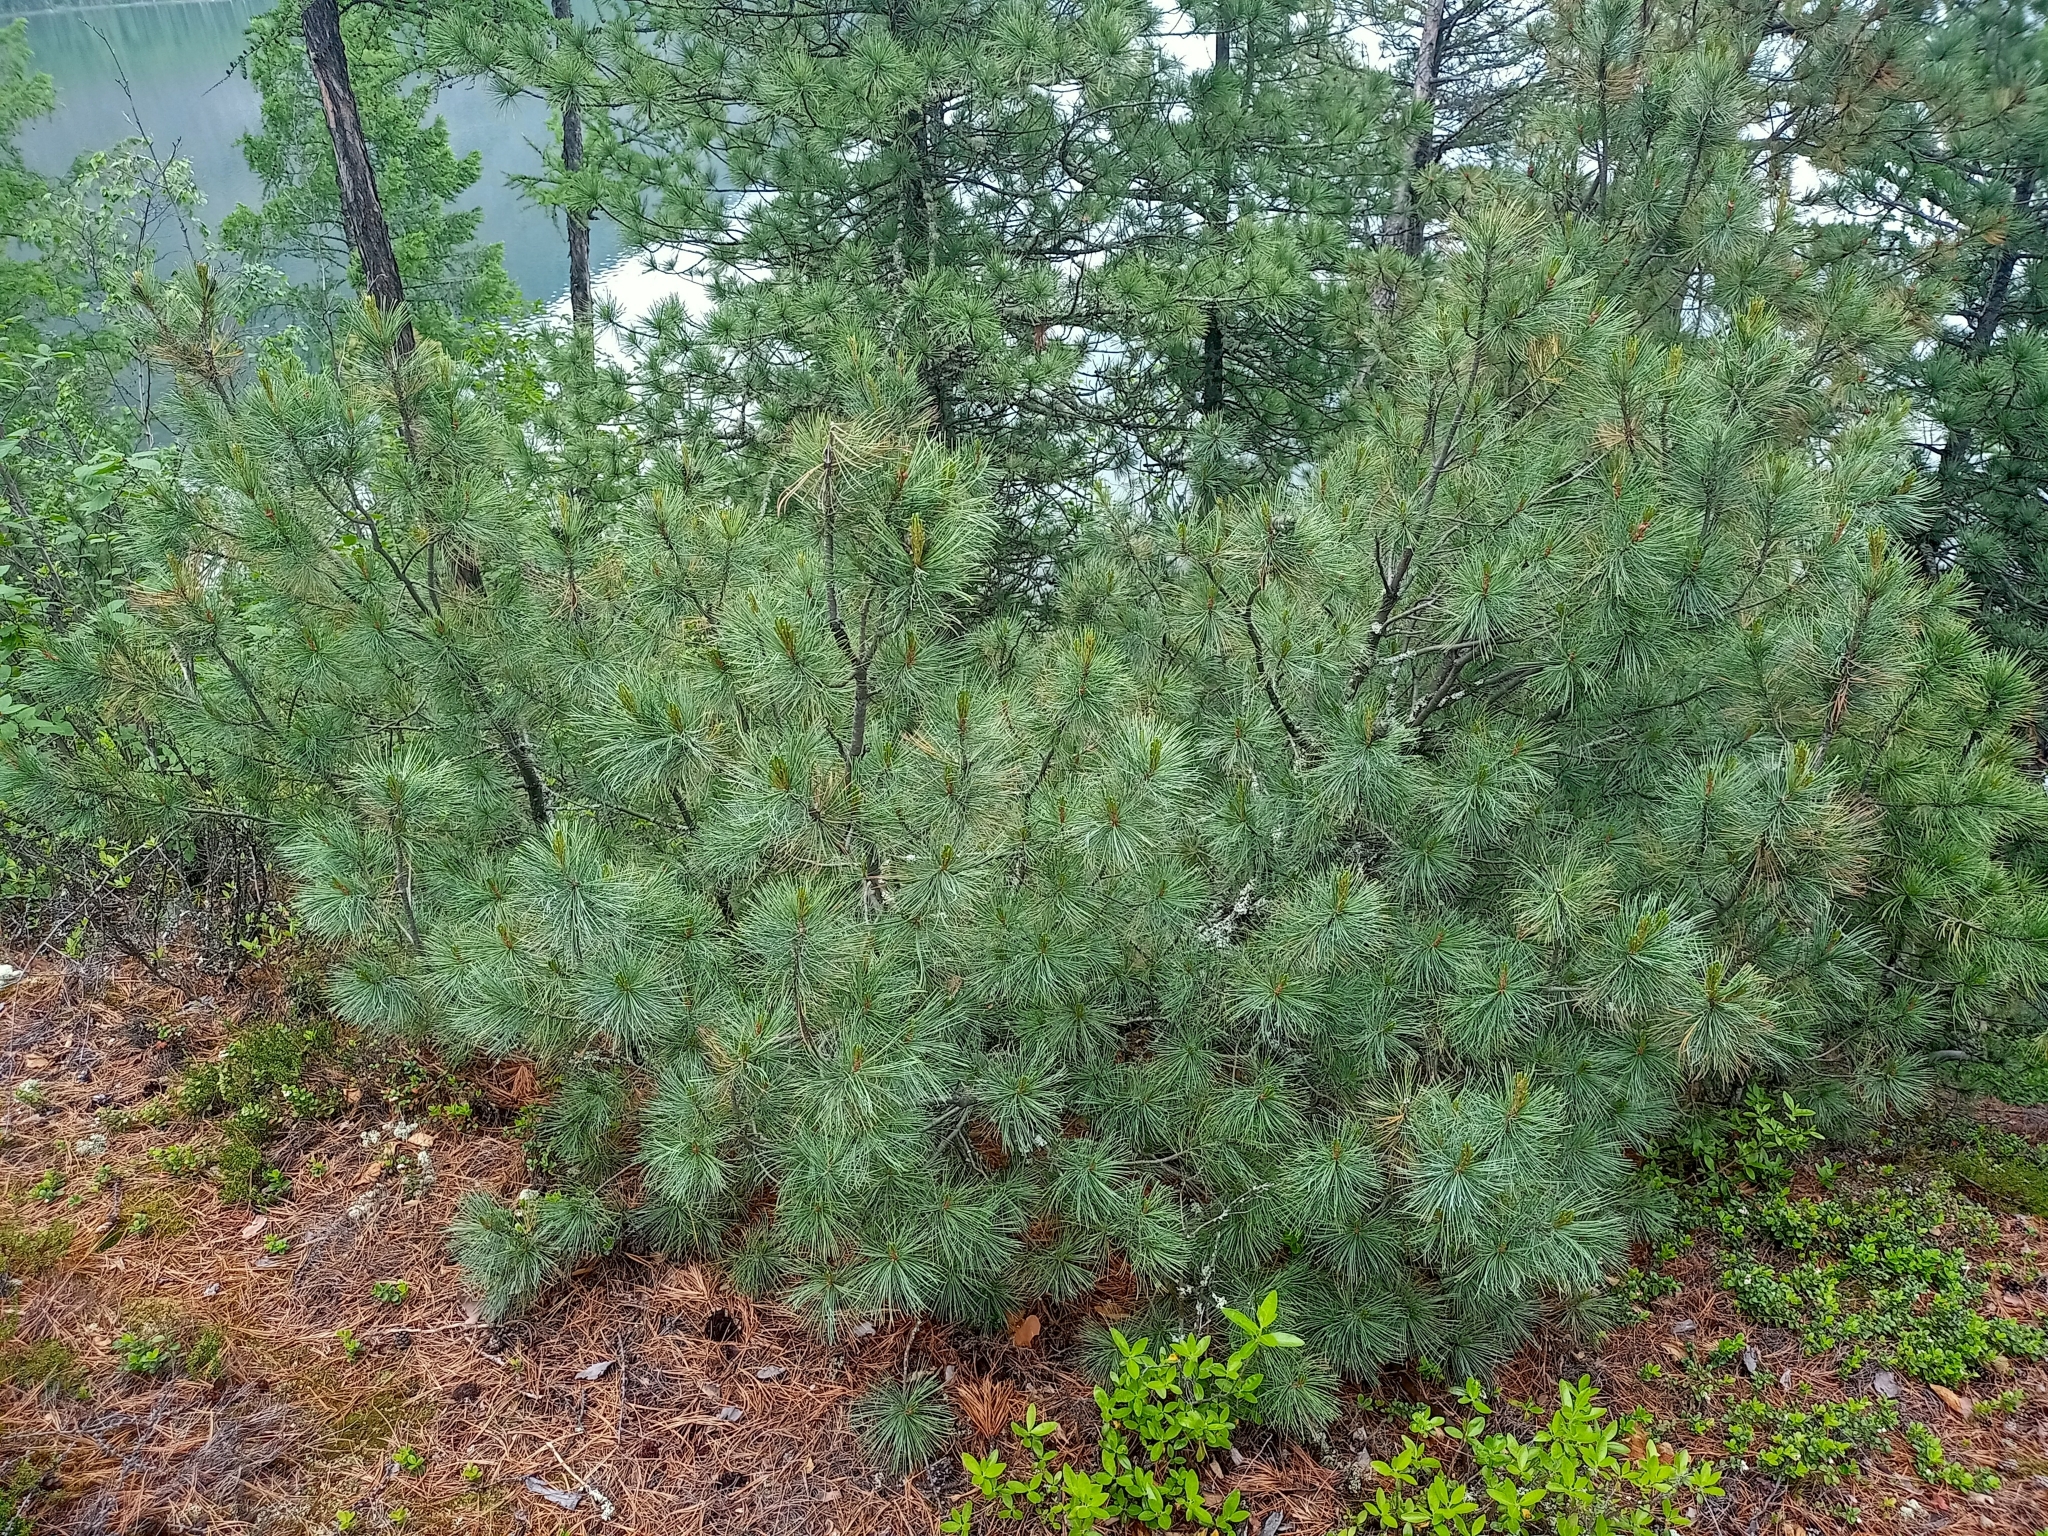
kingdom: Plantae
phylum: Tracheophyta
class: Pinopsida
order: Pinales
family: Pinaceae
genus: Pinus
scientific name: Pinus pumila
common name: Dwarf siberian pine
